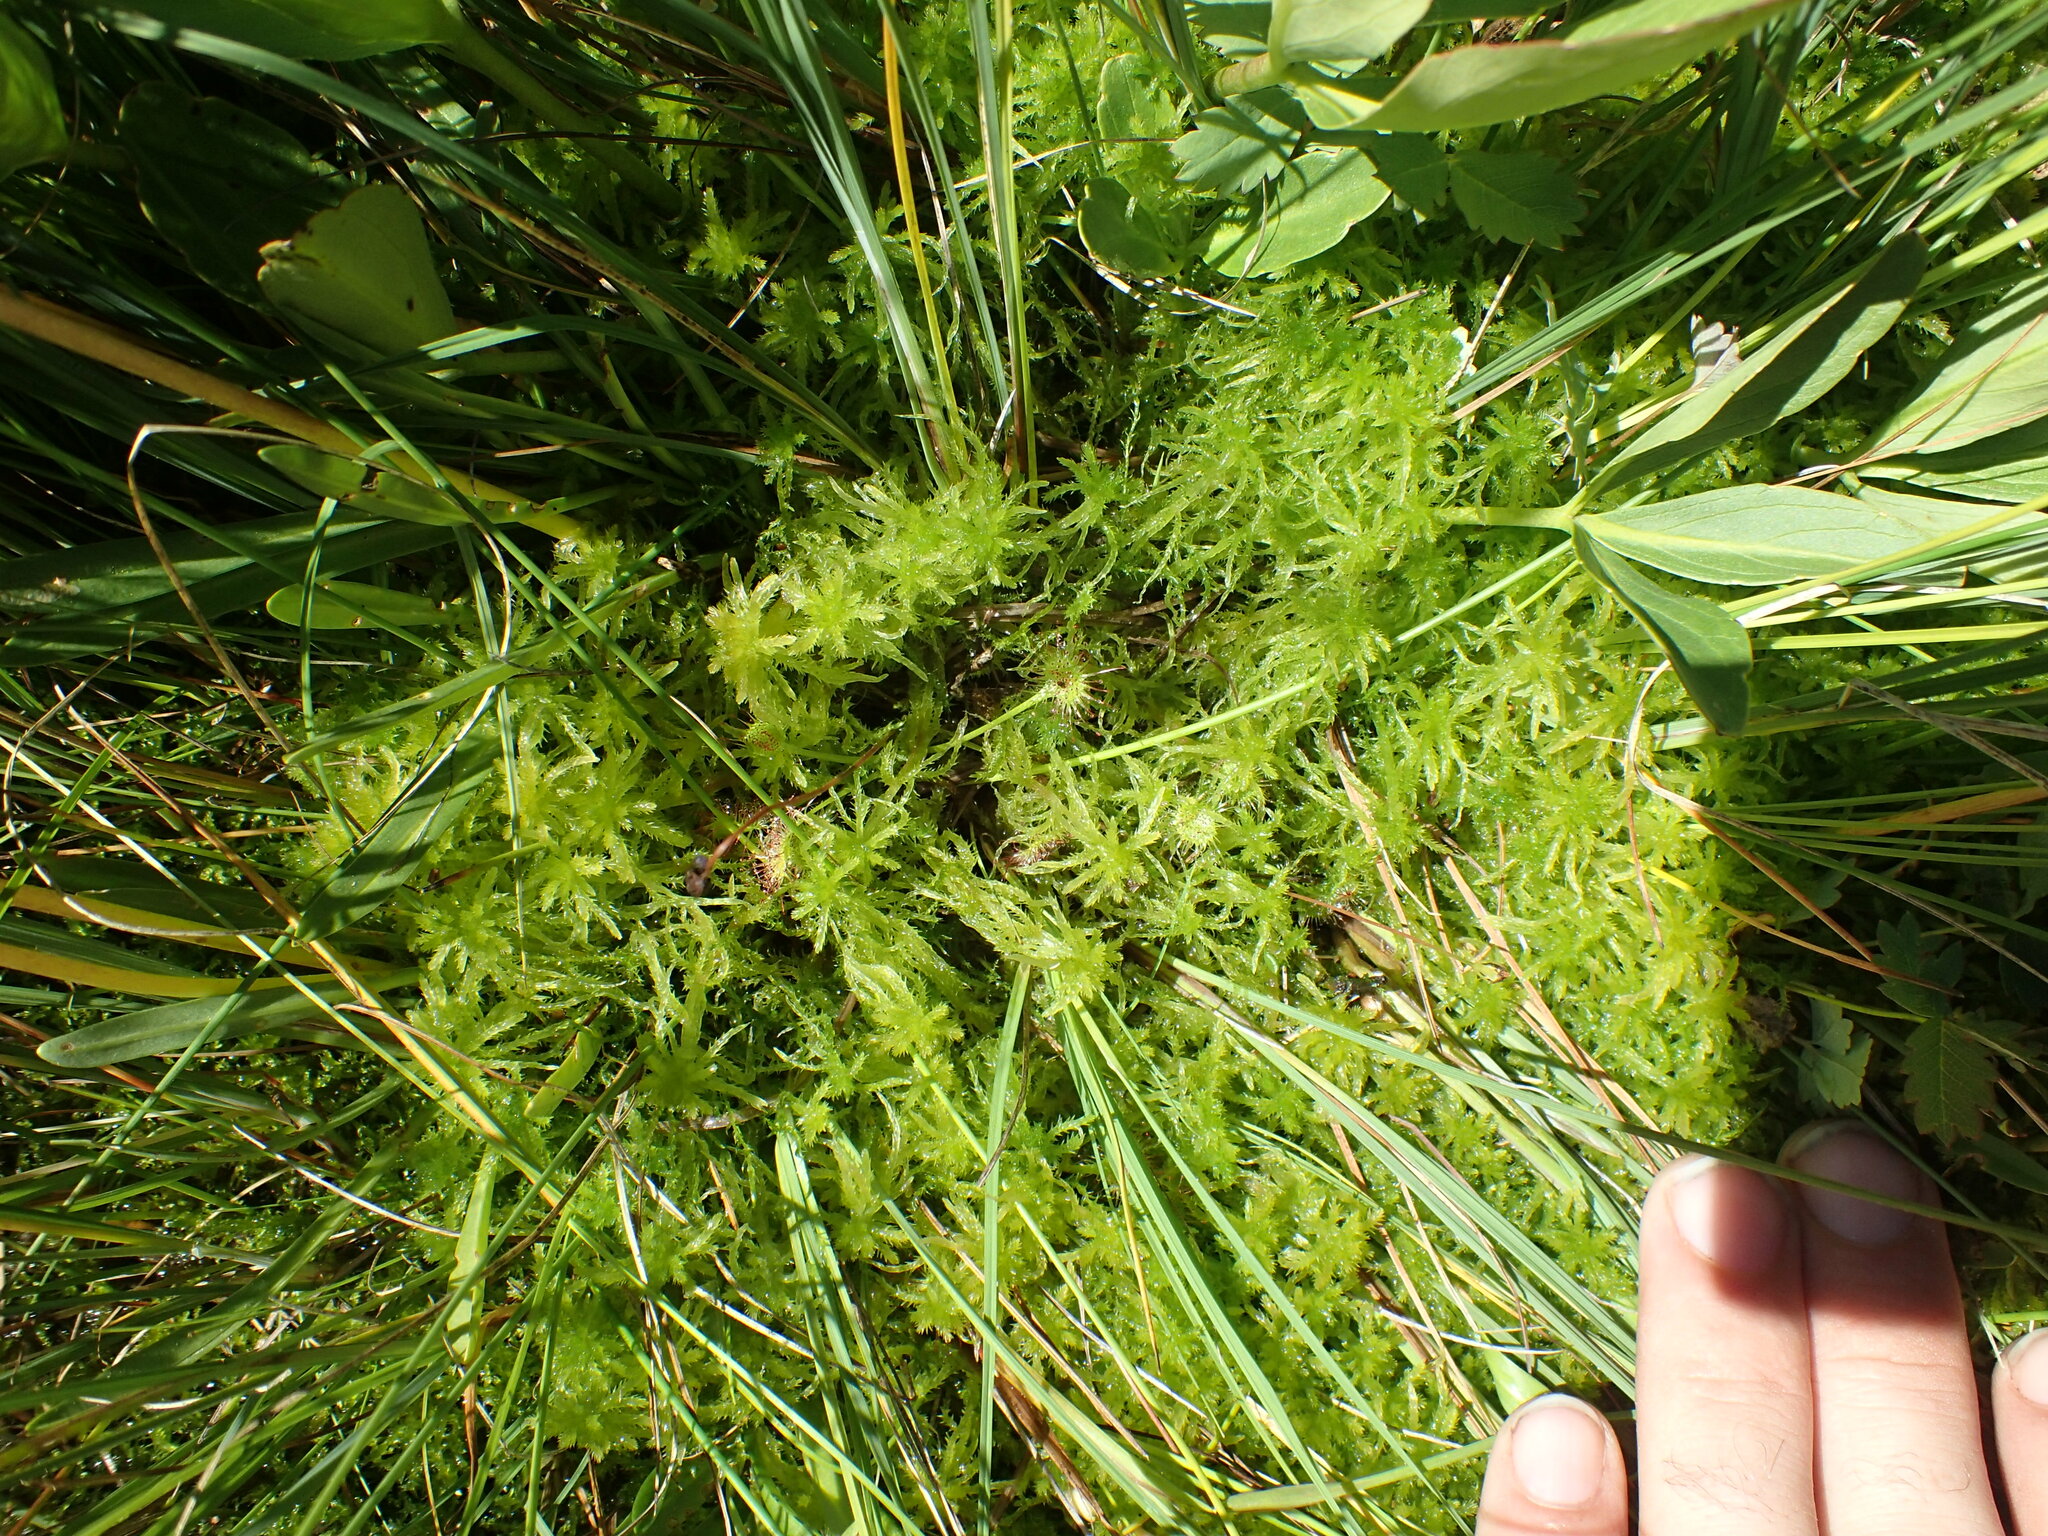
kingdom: Plantae
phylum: Tracheophyta
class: Magnoliopsida
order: Caryophyllales
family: Droseraceae
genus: Drosera
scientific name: Drosera rotundifolia
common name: Round-leaved sundew
